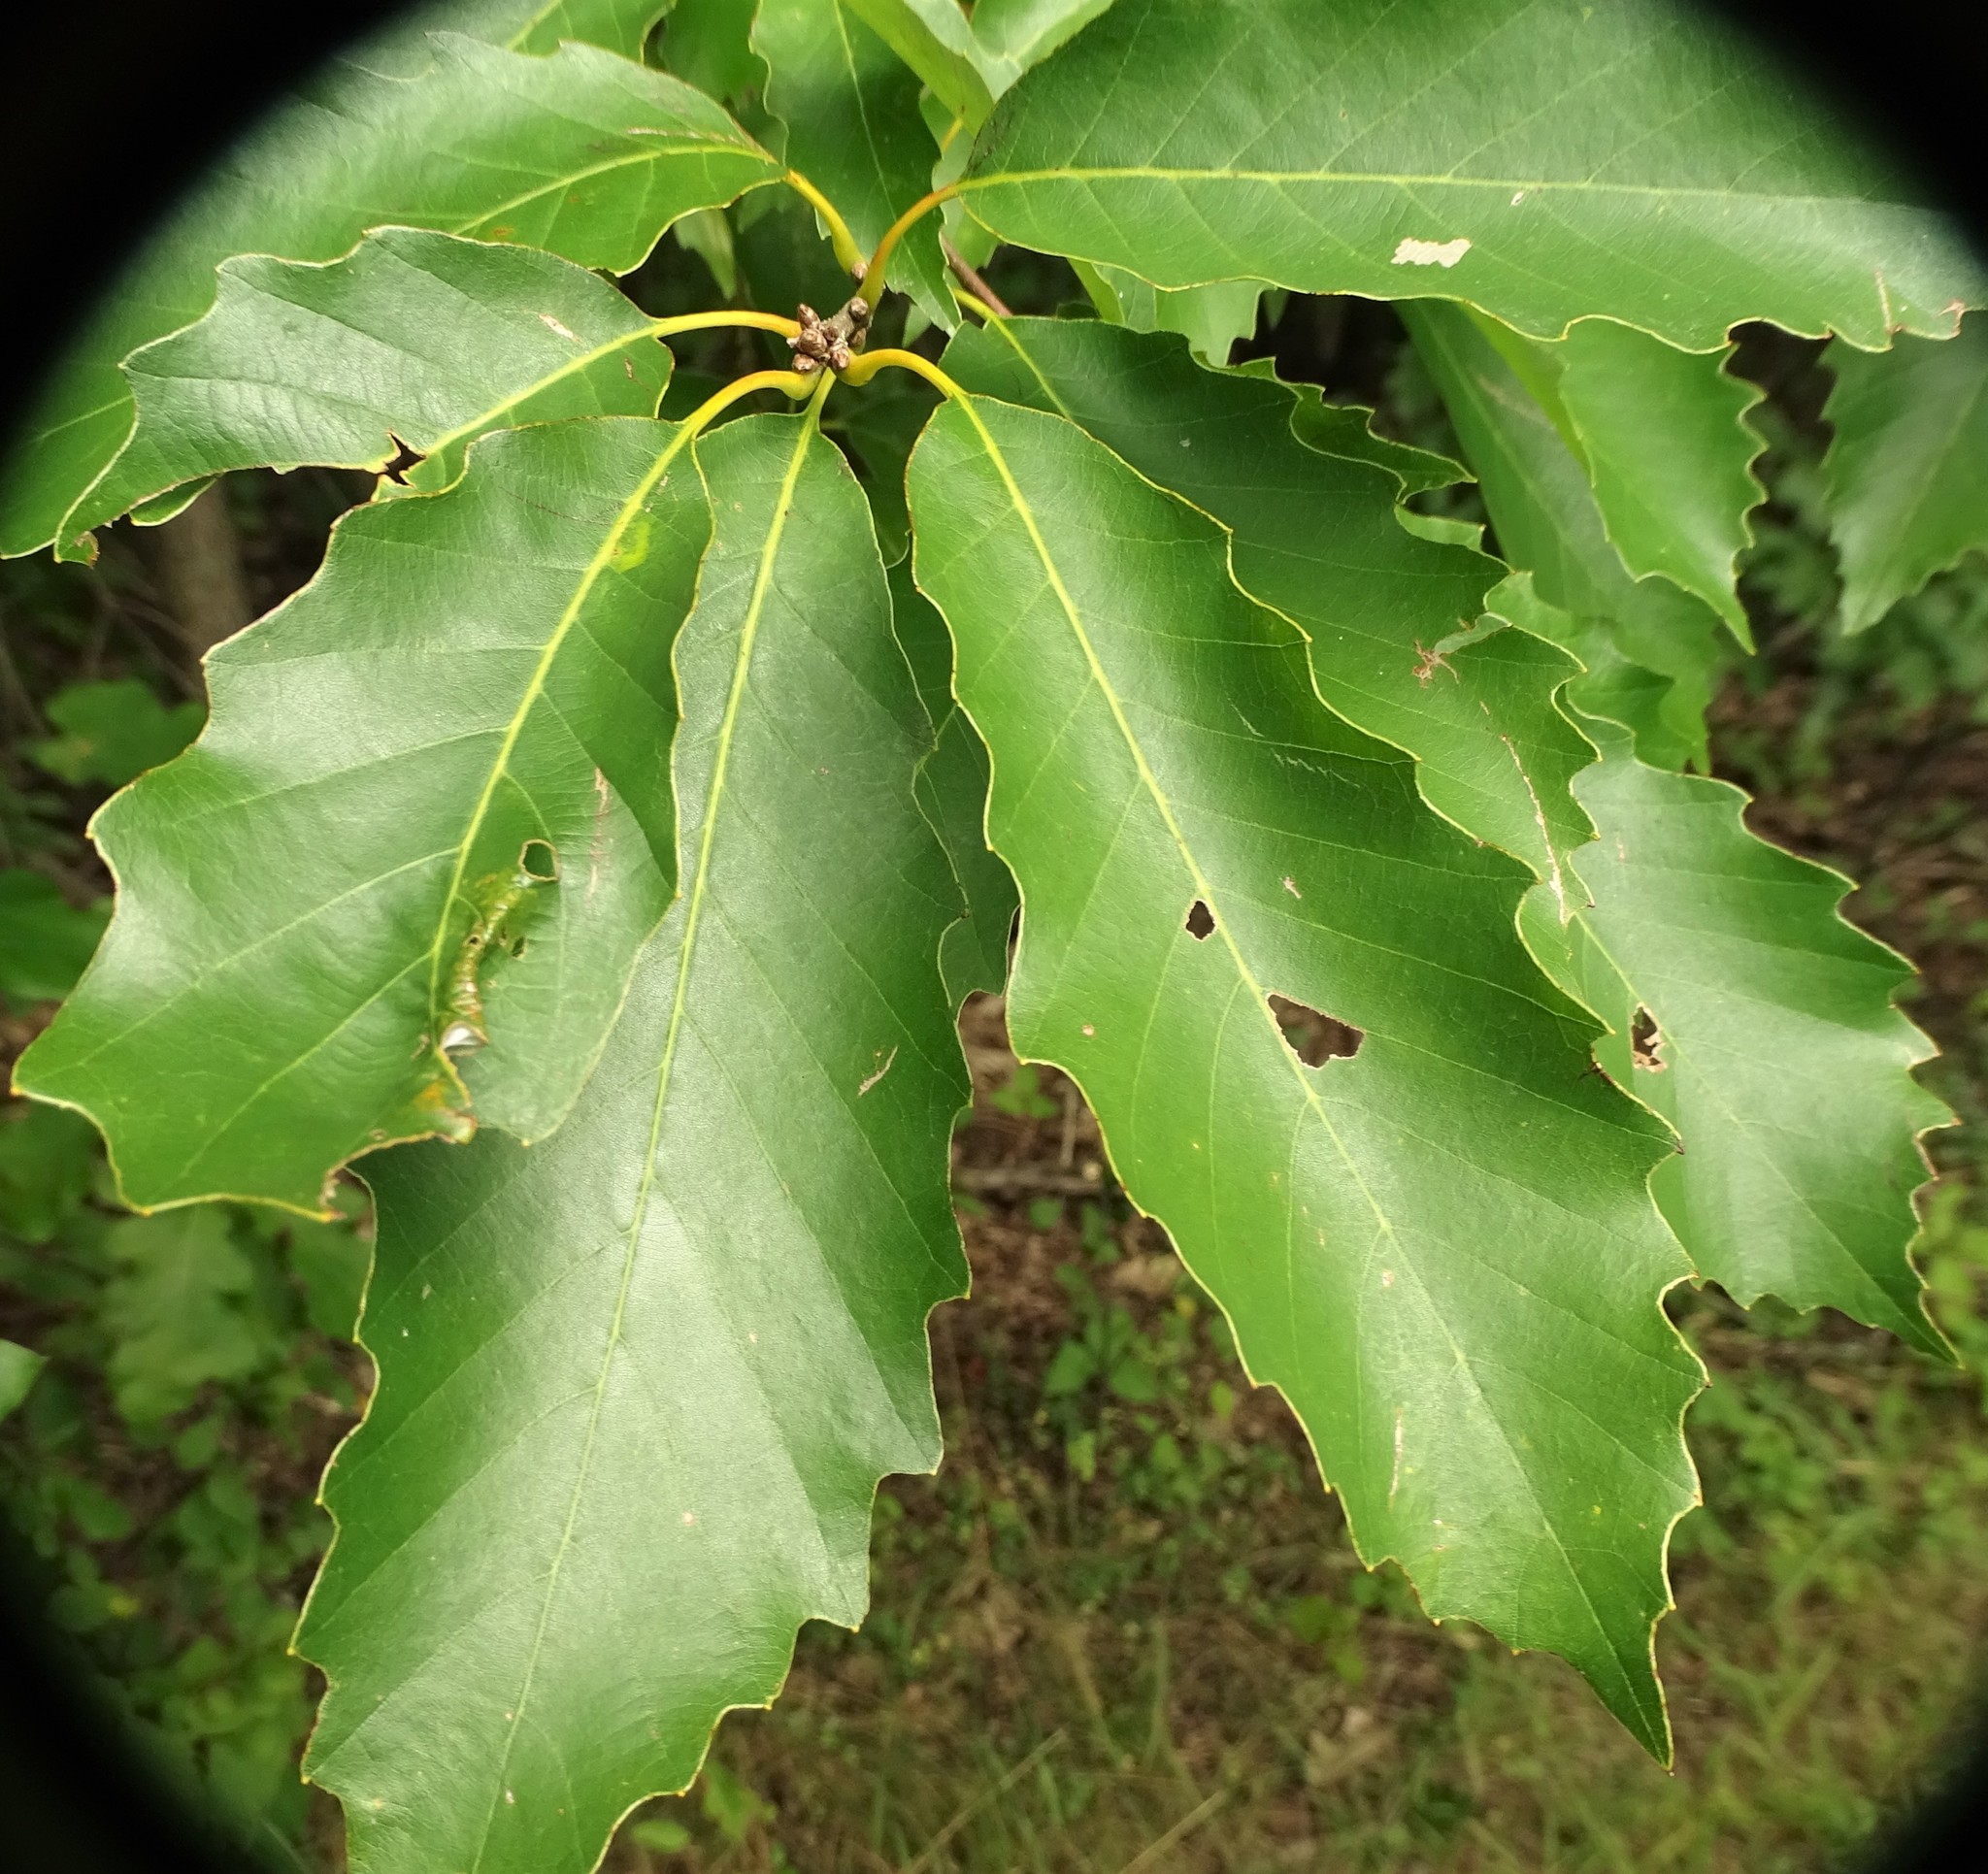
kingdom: Plantae
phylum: Tracheophyta
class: Magnoliopsida
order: Fagales
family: Fagaceae
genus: Quercus
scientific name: Quercus muehlenbergii
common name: Chinkapin oak
